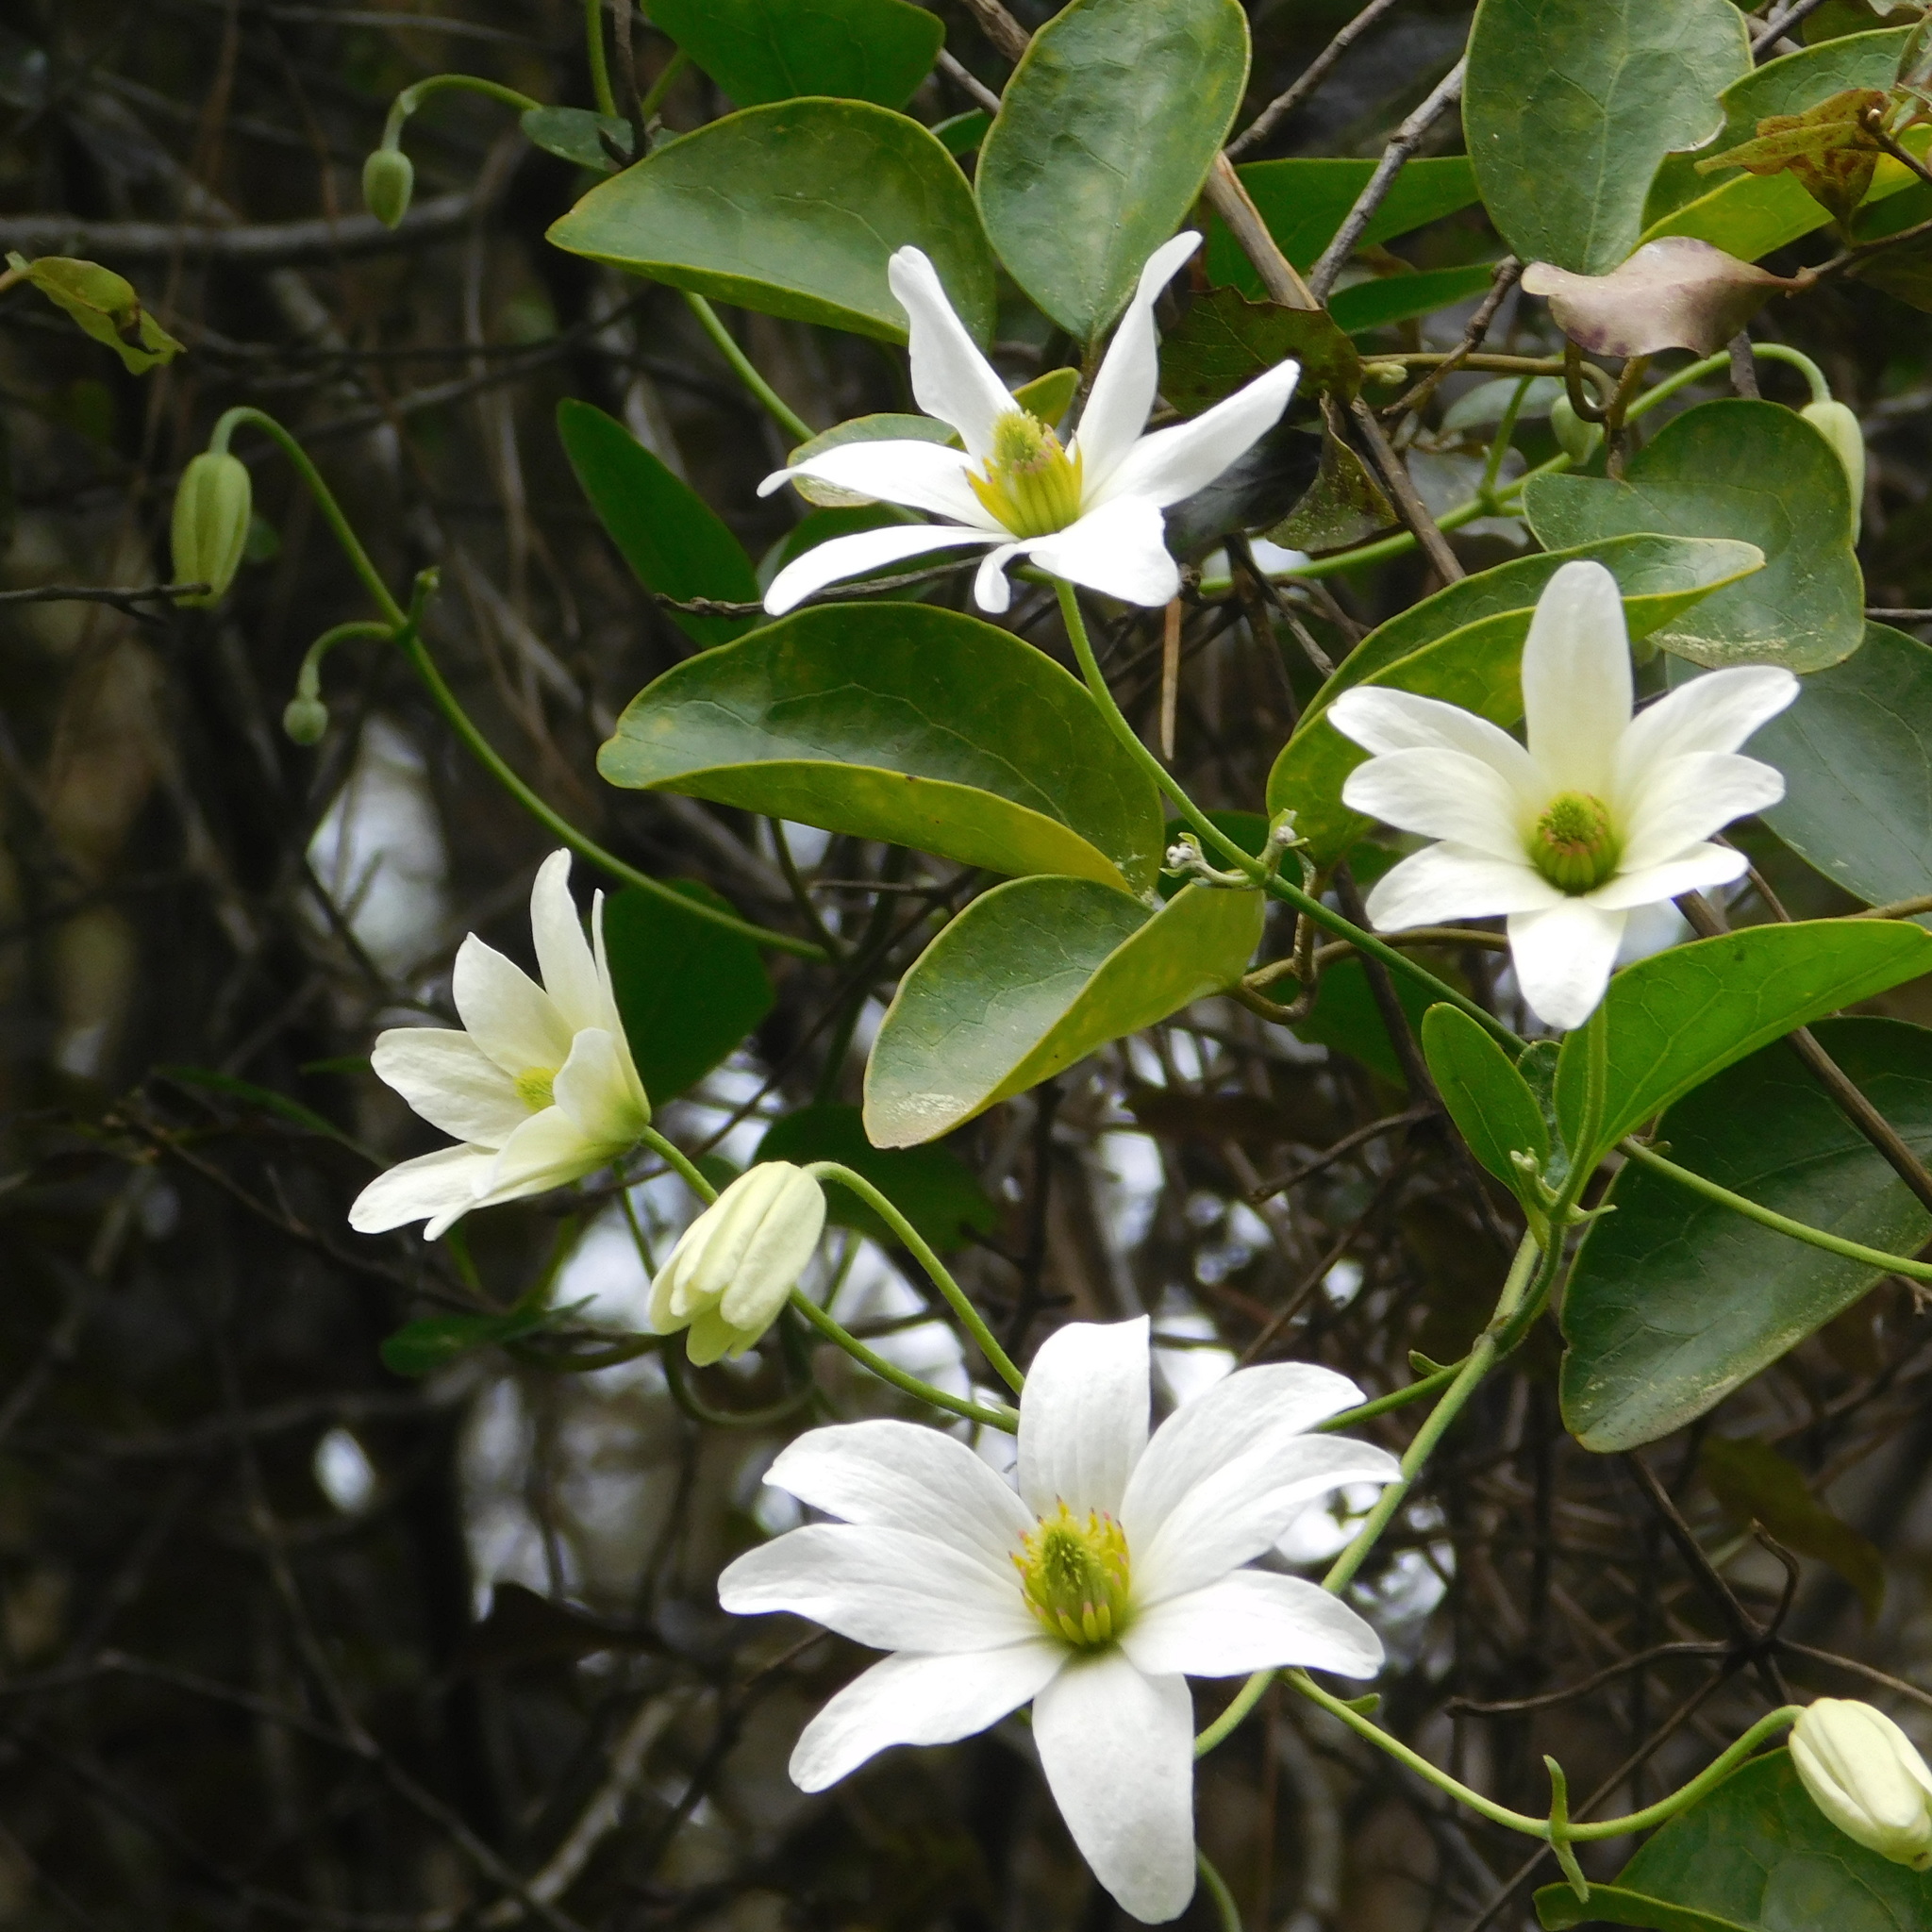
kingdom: Plantae
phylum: Tracheophyta
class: Magnoliopsida
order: Ranunculales
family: Ranunculaceae
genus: Clematis
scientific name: Clematis paniculata
